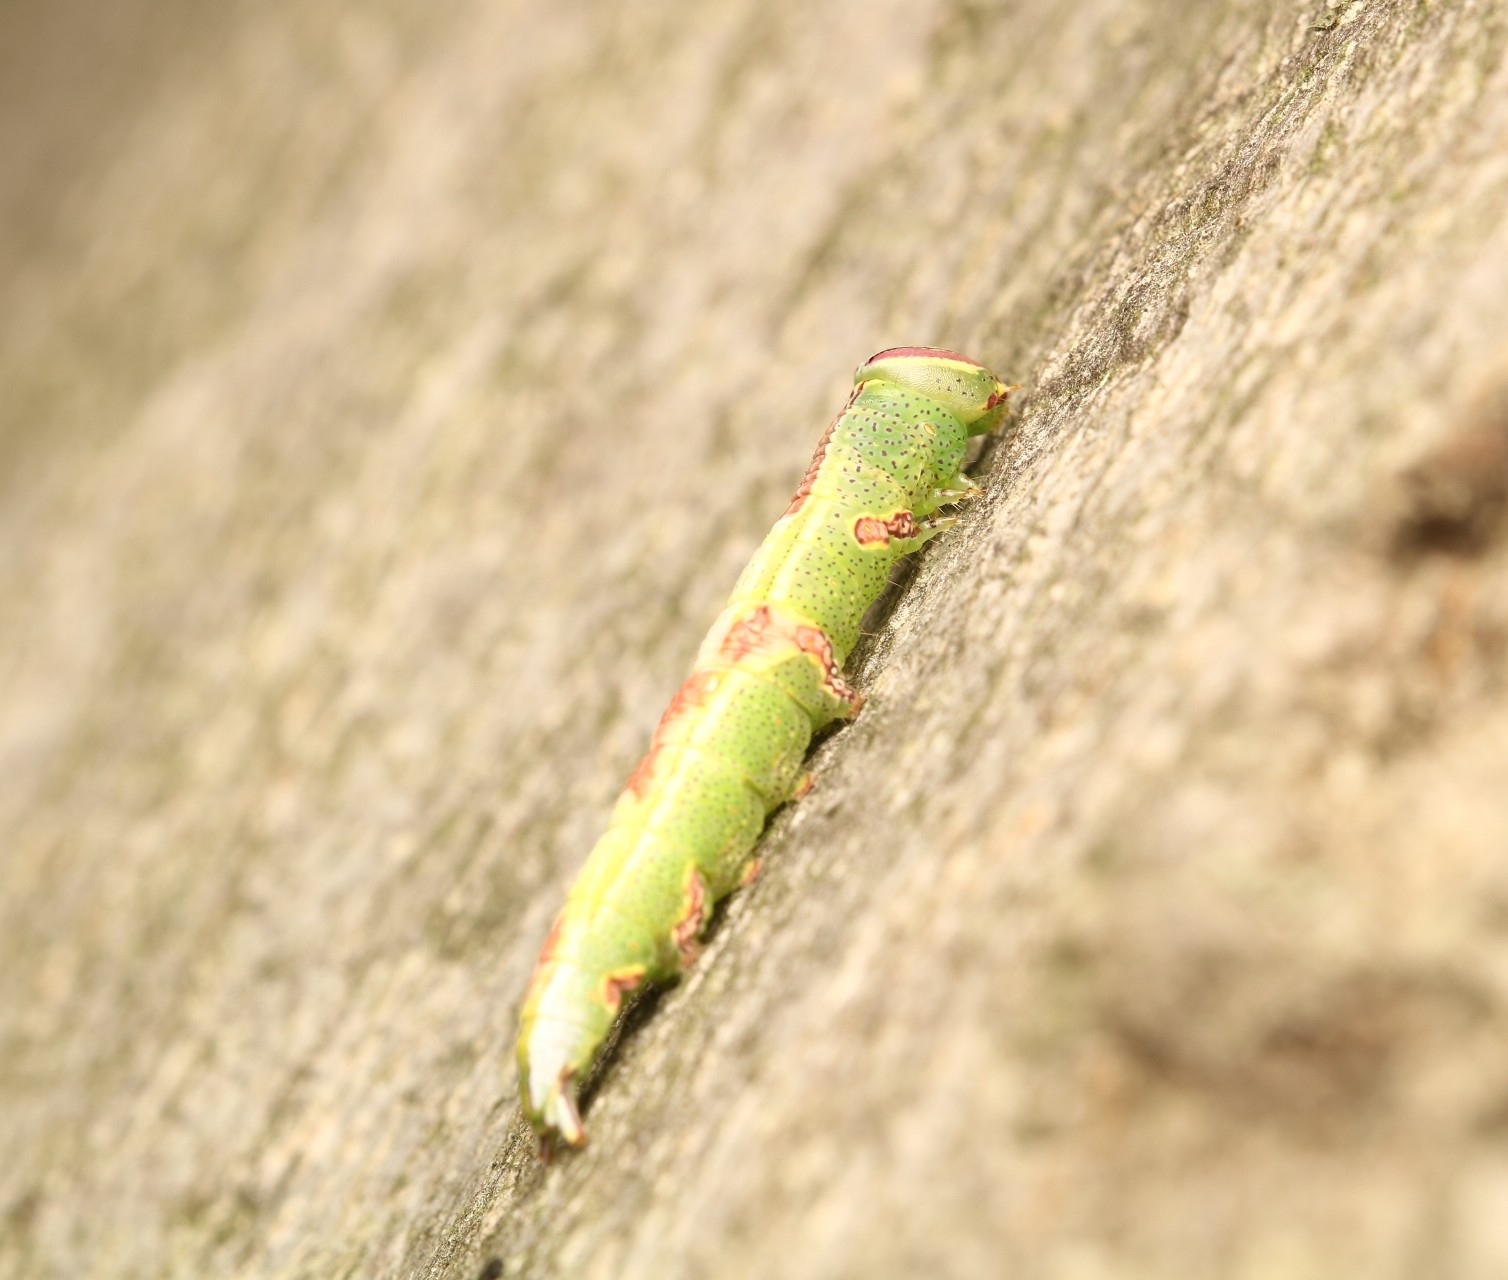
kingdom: Animalia
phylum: Arthropoda
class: Insecta
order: Lepidoptera
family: Notodontidae
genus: Disphragis
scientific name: Disphragis Cecrita guttivitta
